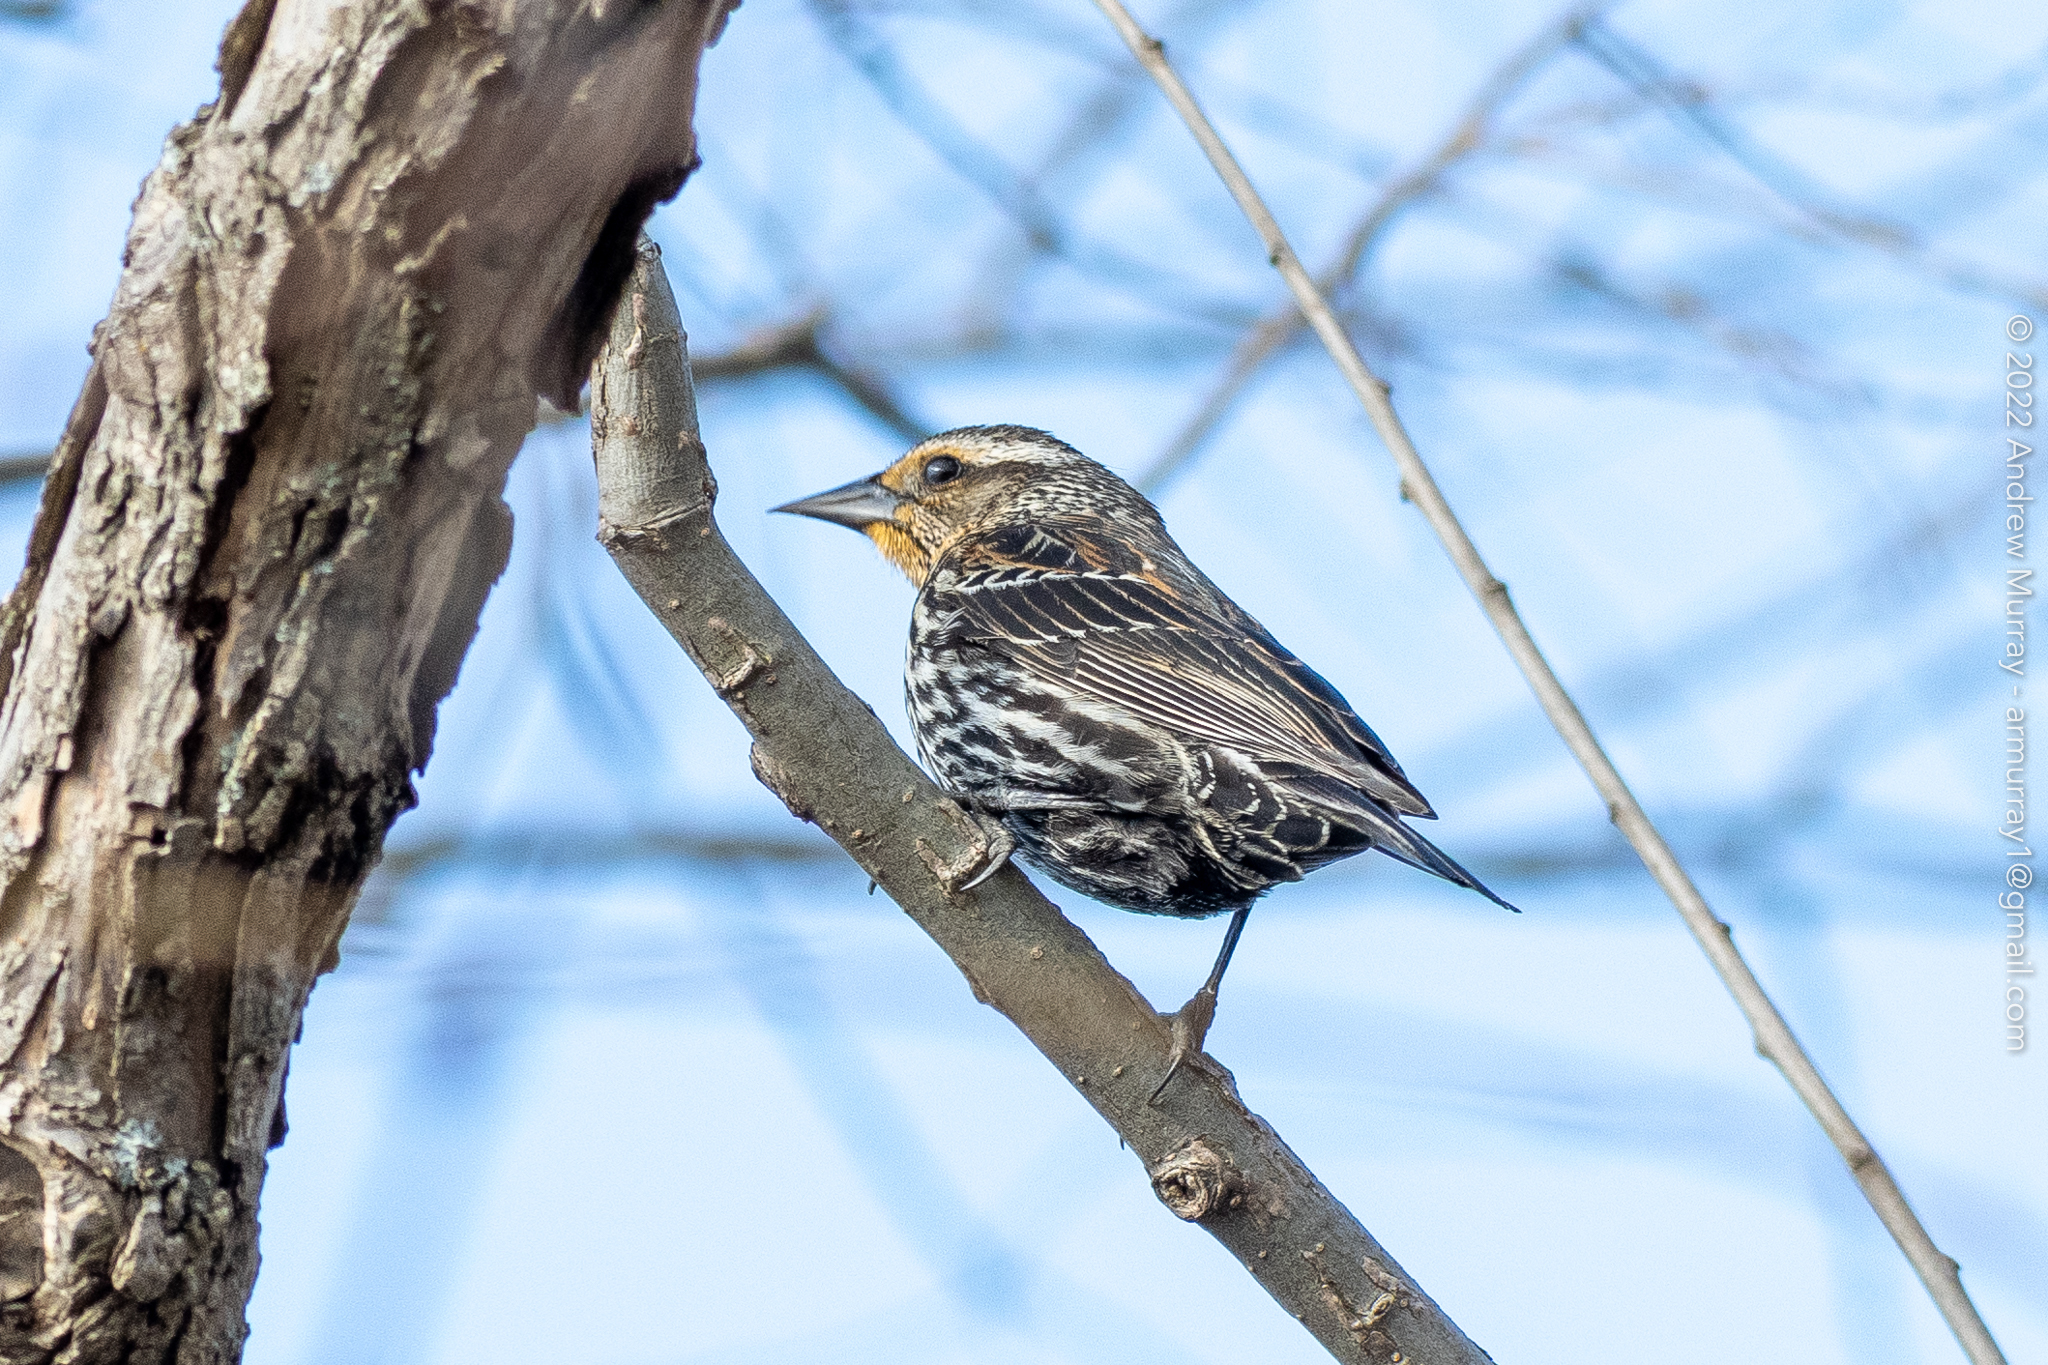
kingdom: Animalia
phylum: Chordata
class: Aves
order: Passeriformes
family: Icteridae
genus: Agelaius
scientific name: Agelaius phoeniceus
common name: Red-winged blackbird
